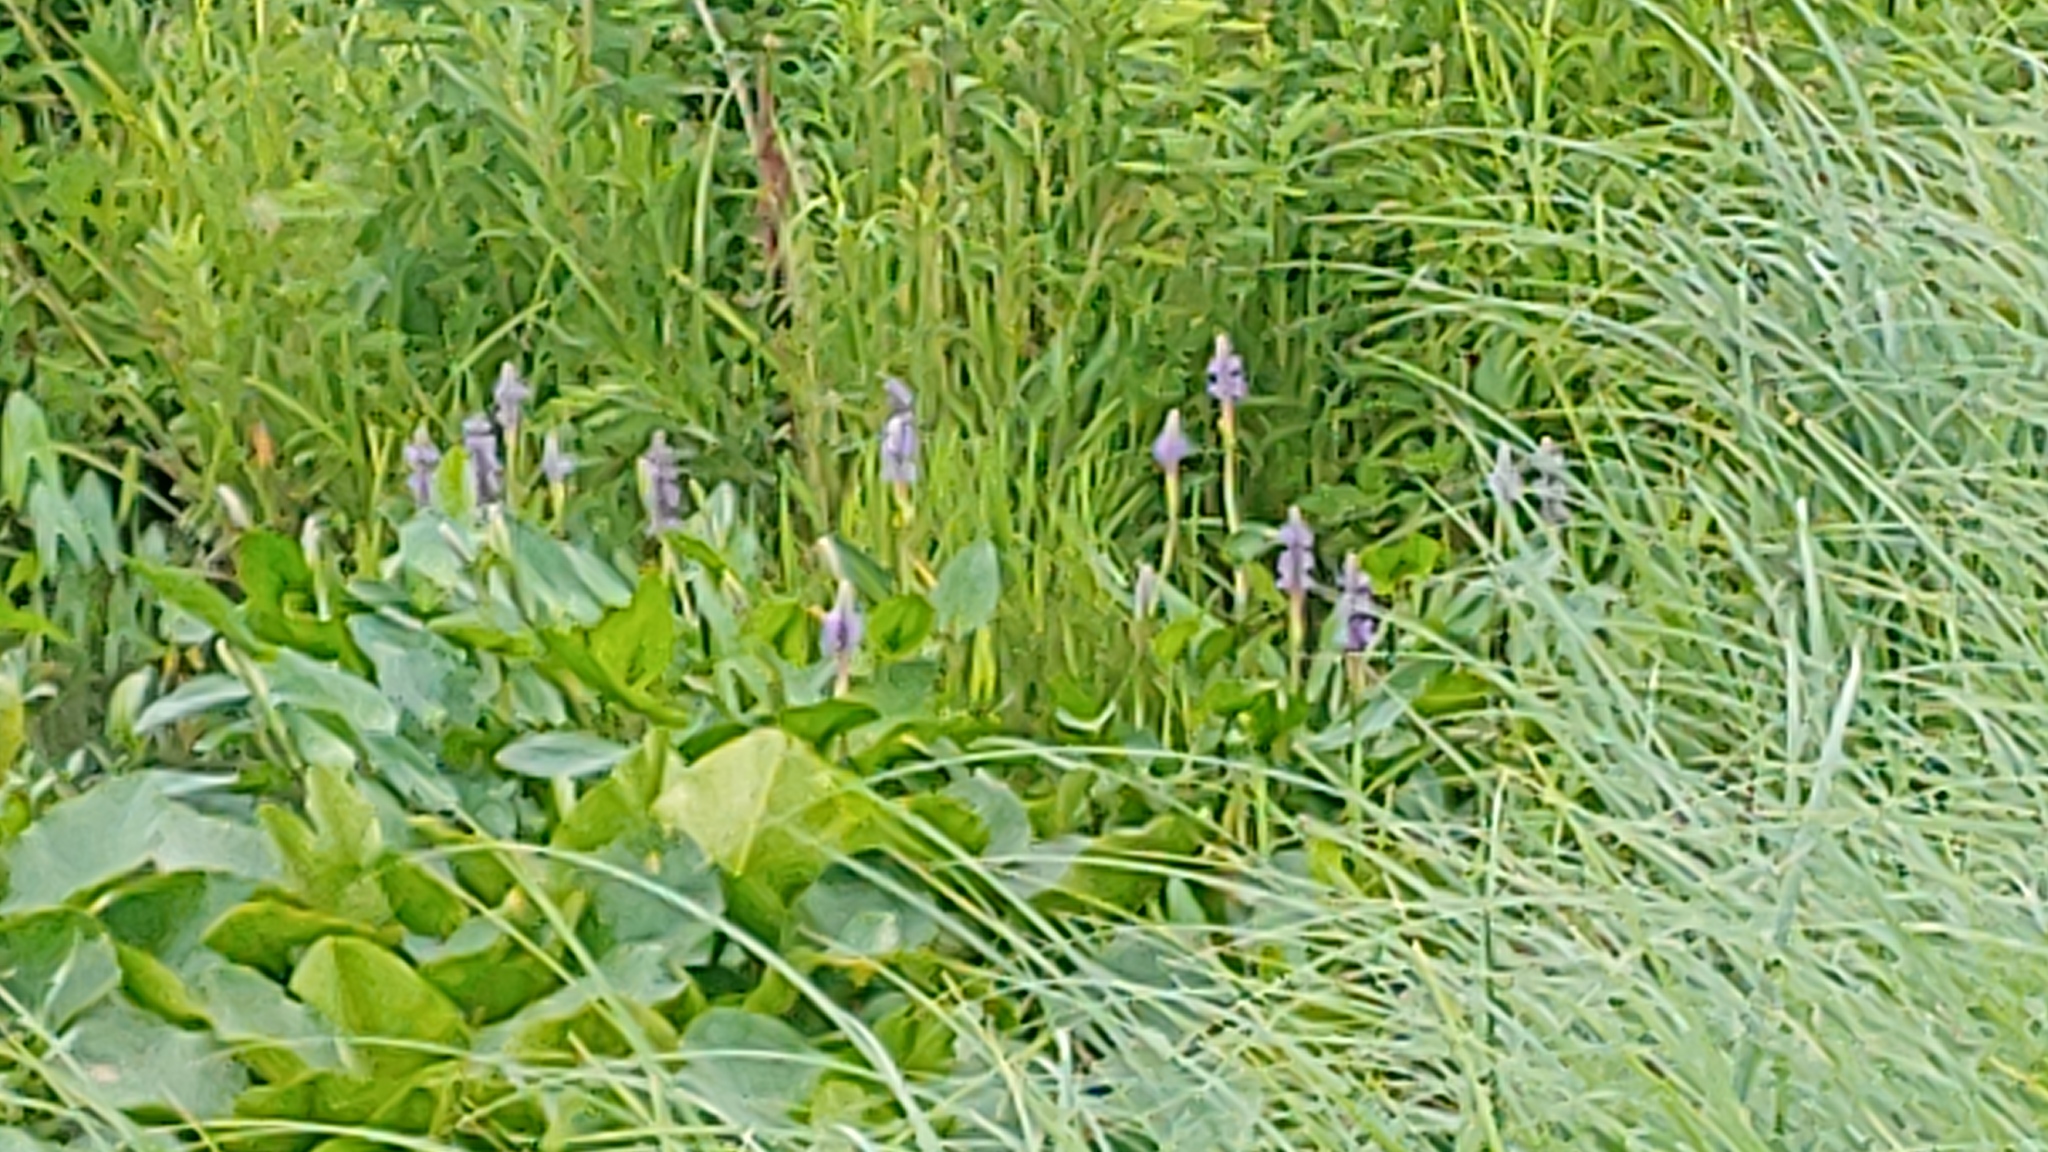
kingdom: Plantae
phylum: Tracheophyta
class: Liliopsida
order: Commelinales
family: Pontederiaceae
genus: Pontederia
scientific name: Pontederia cordata
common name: Pickerelweed
